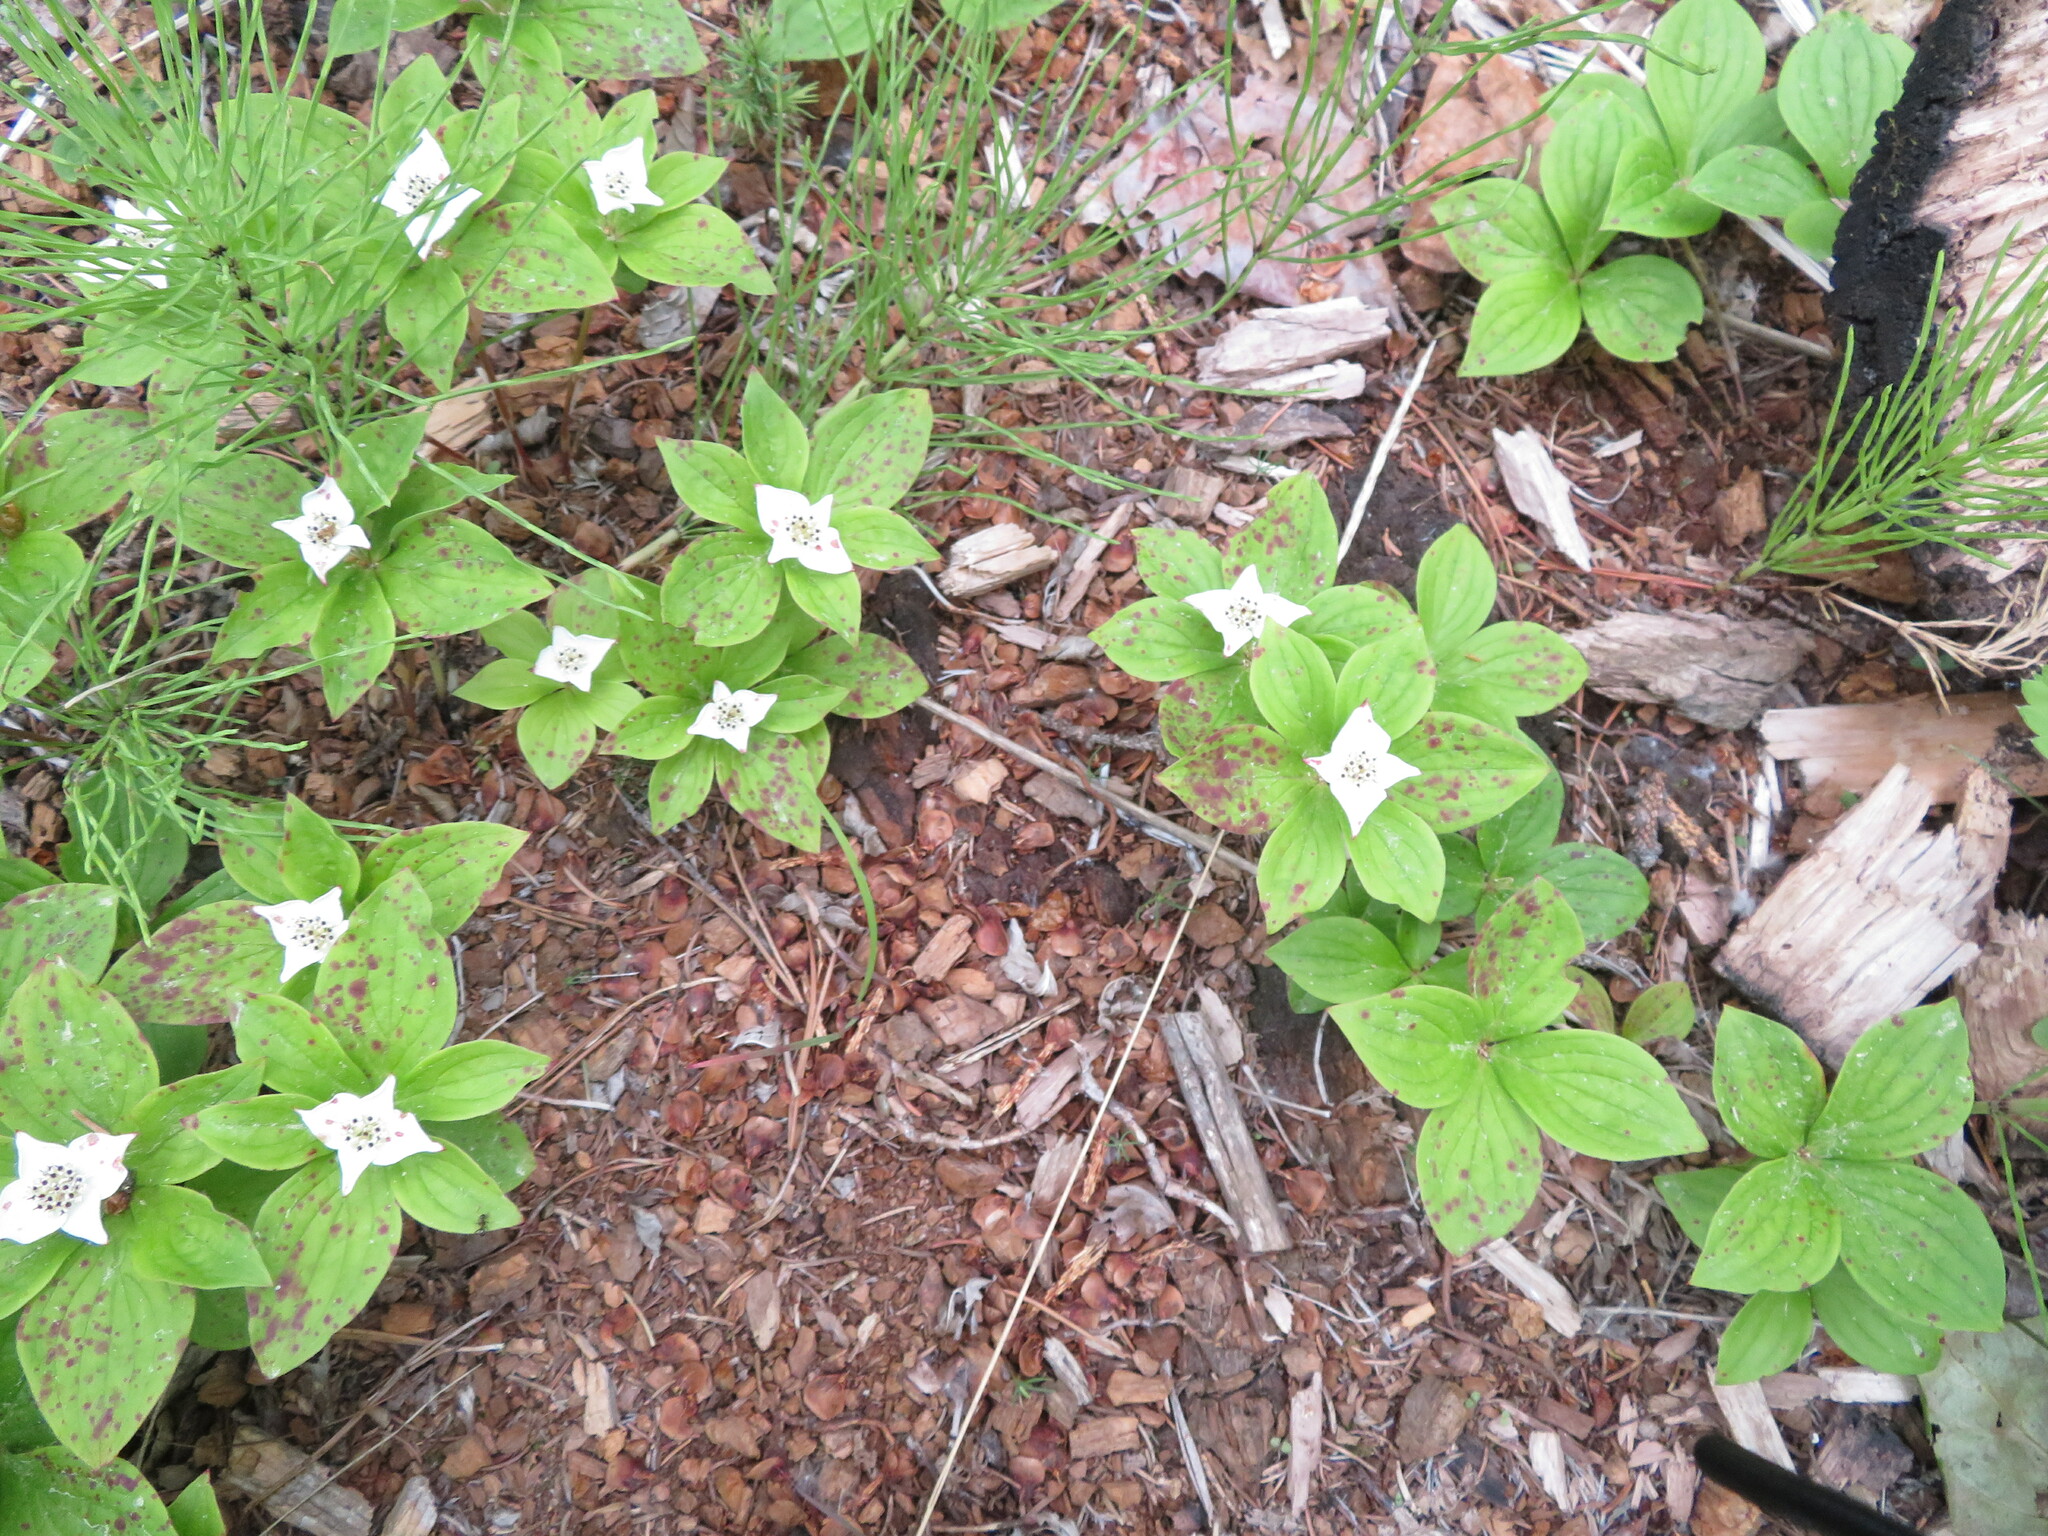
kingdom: Plantae
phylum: Tracheophyta
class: Magnoliopsida
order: Cornales
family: Cornaceae
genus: Cornus
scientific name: Cornus canadensis
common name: Creeping dogwood
